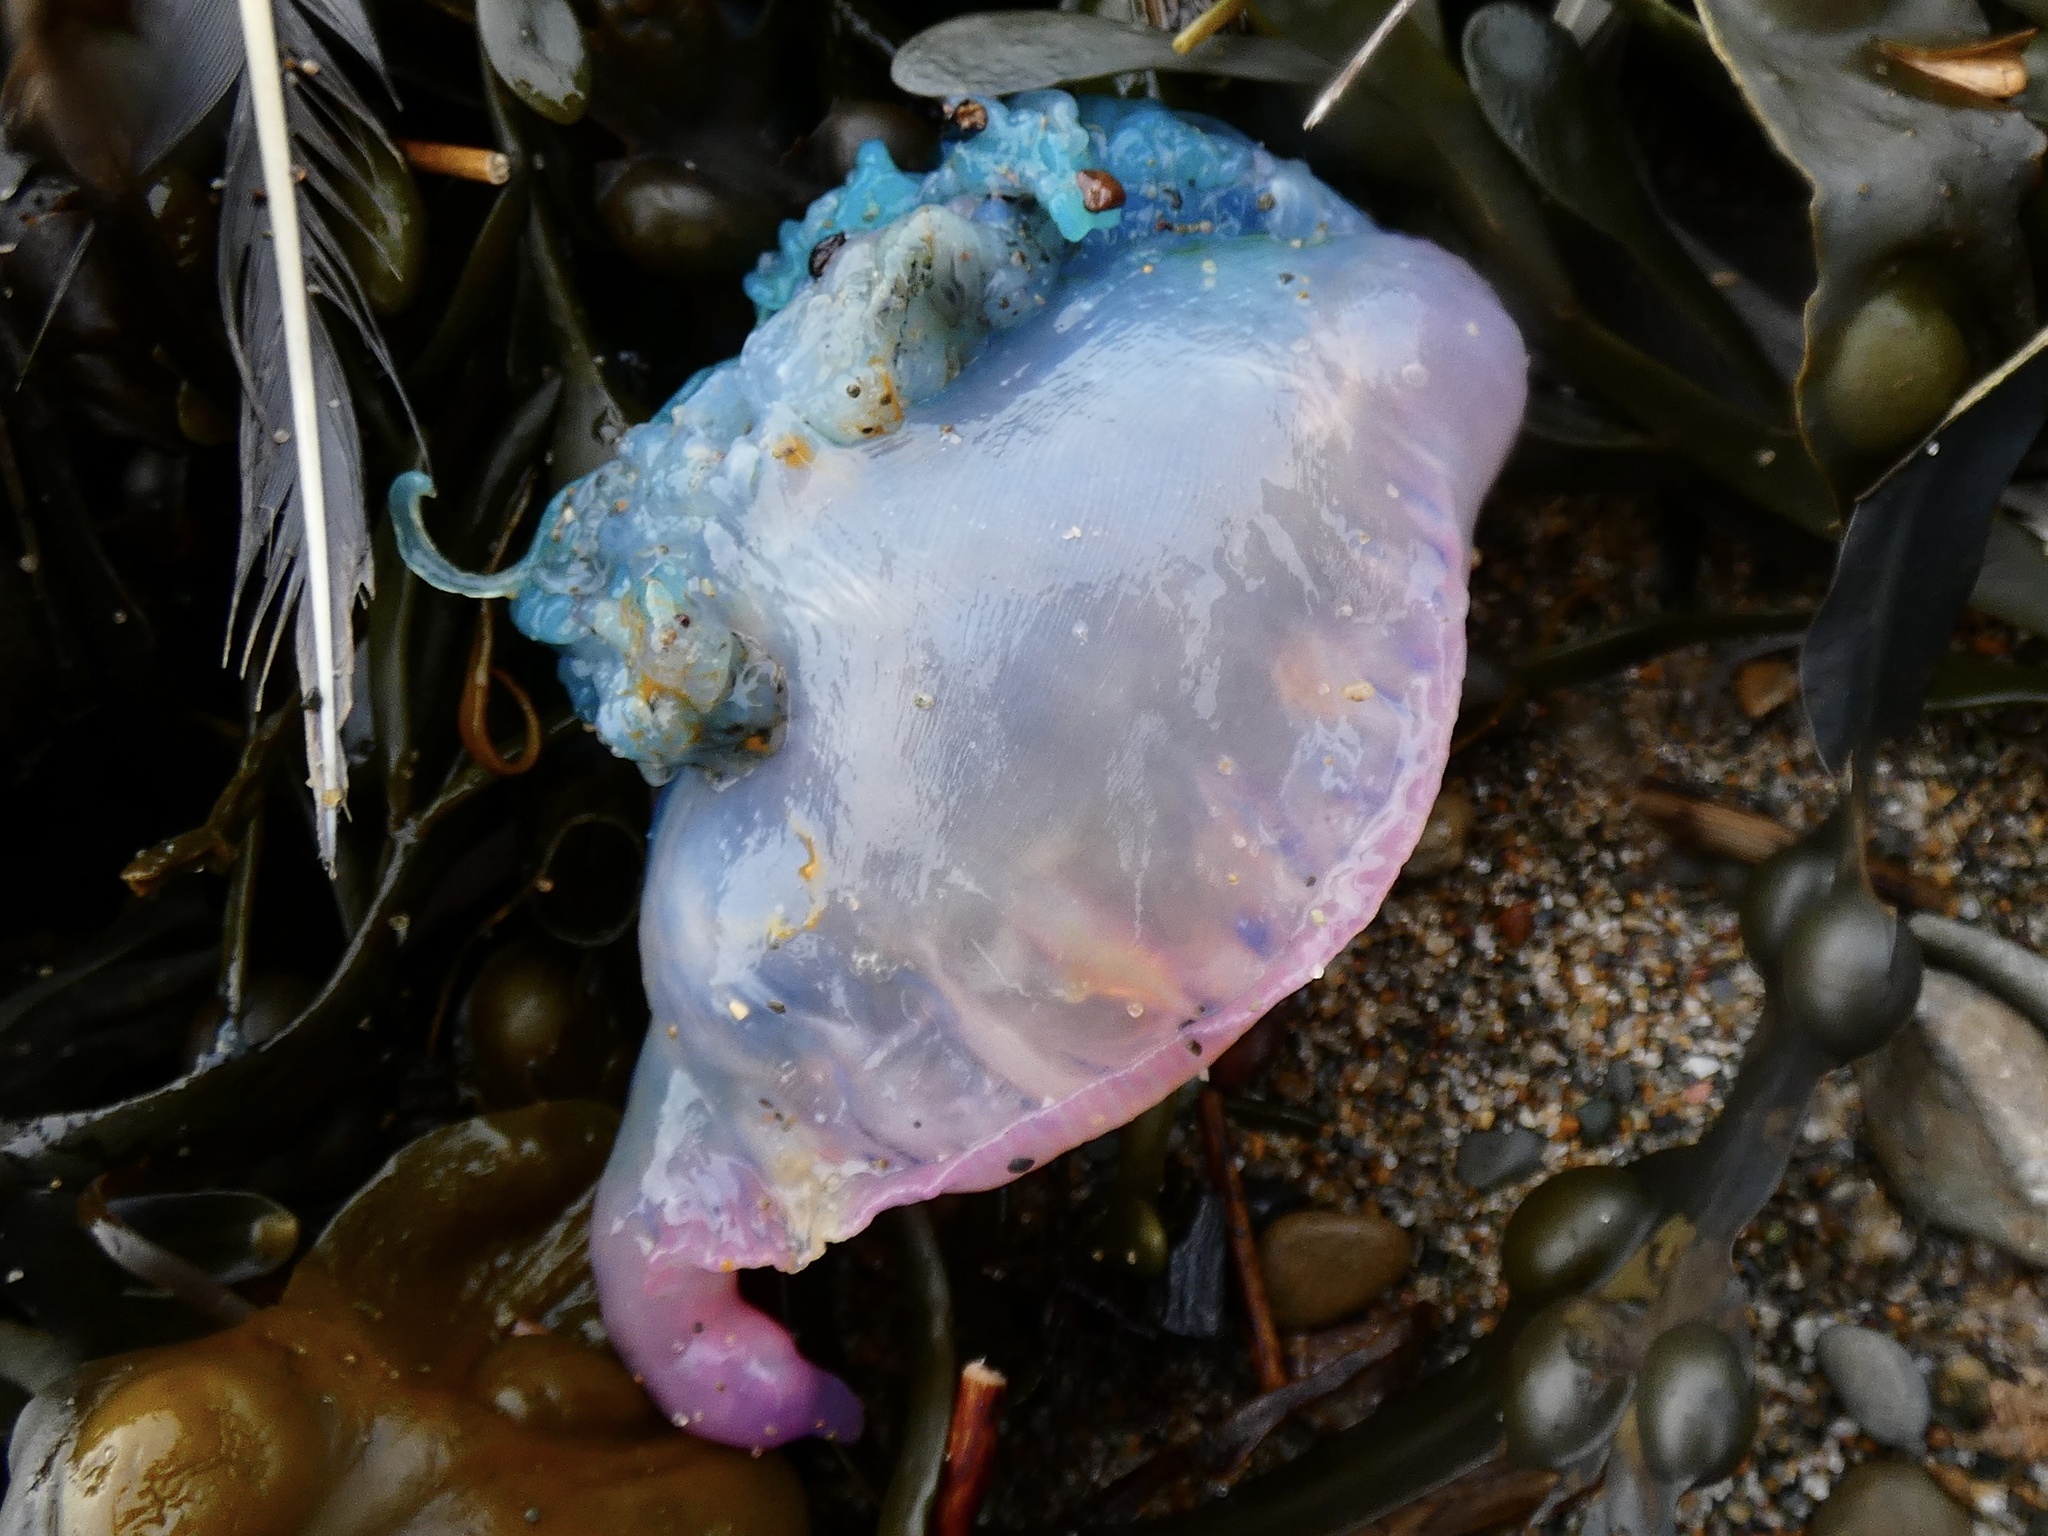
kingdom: Animalia
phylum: Cnidaria
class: Hydrozoa
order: Siphonophorae
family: Physaliidae
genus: Physalia
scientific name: Physalia physalis
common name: Portuguese man-of-war
